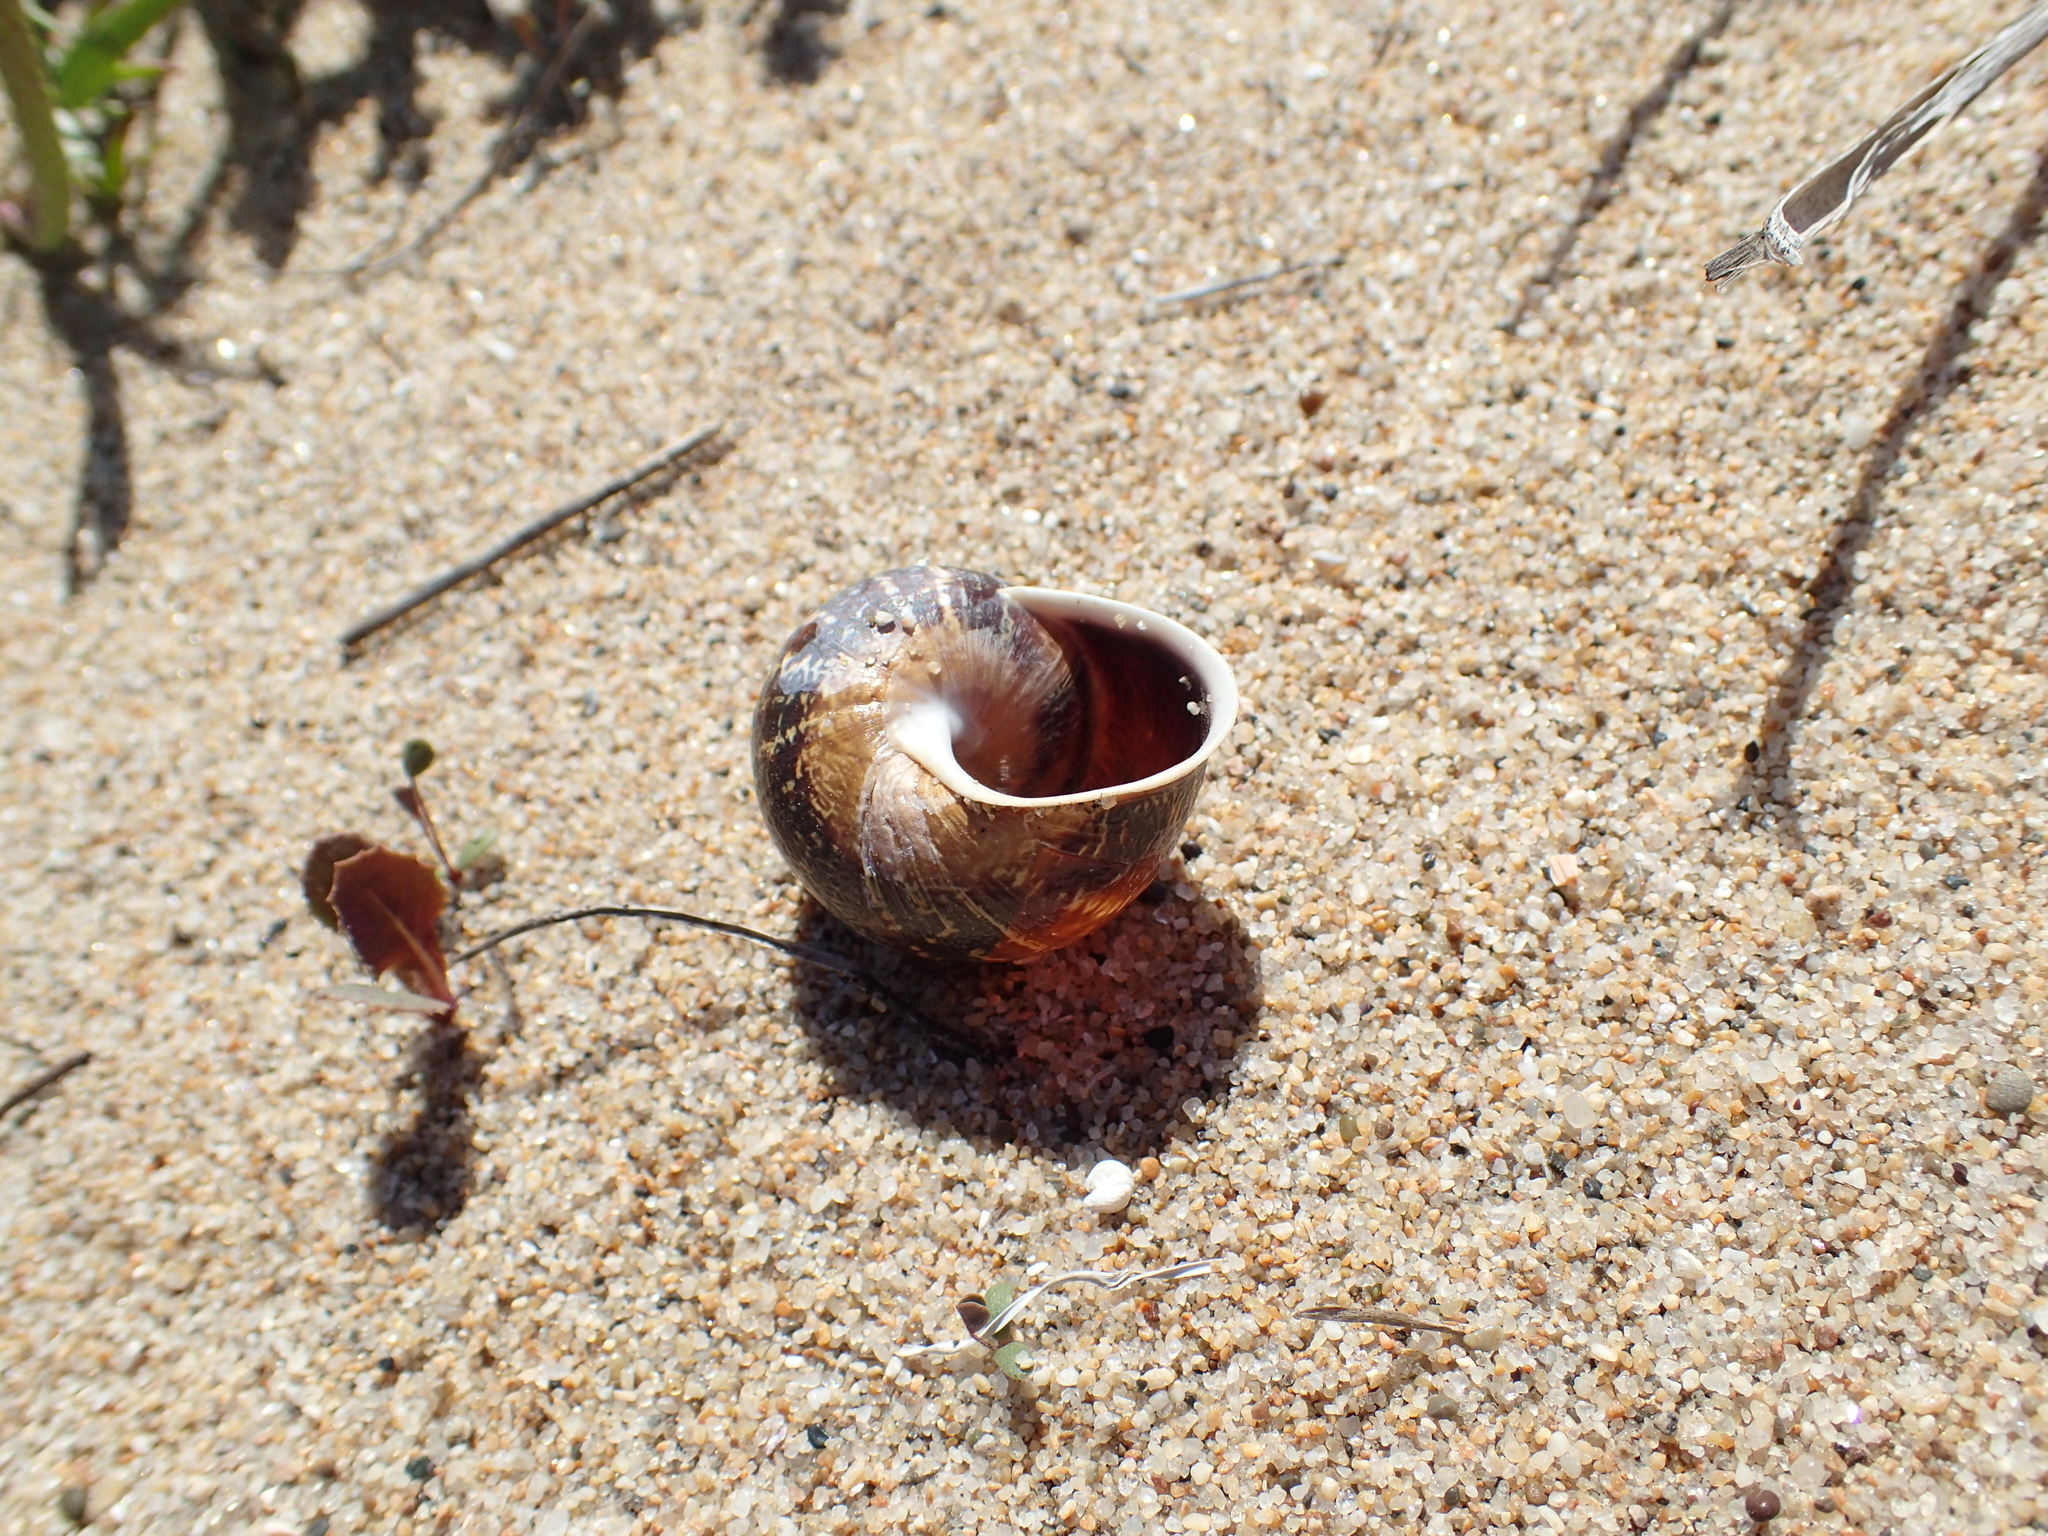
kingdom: Animalia
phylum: Mollusca
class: Gastropoda
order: Stylommatophora
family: Helicidae
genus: Cornu
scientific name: Cornu aspersum
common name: Brown garden snail
